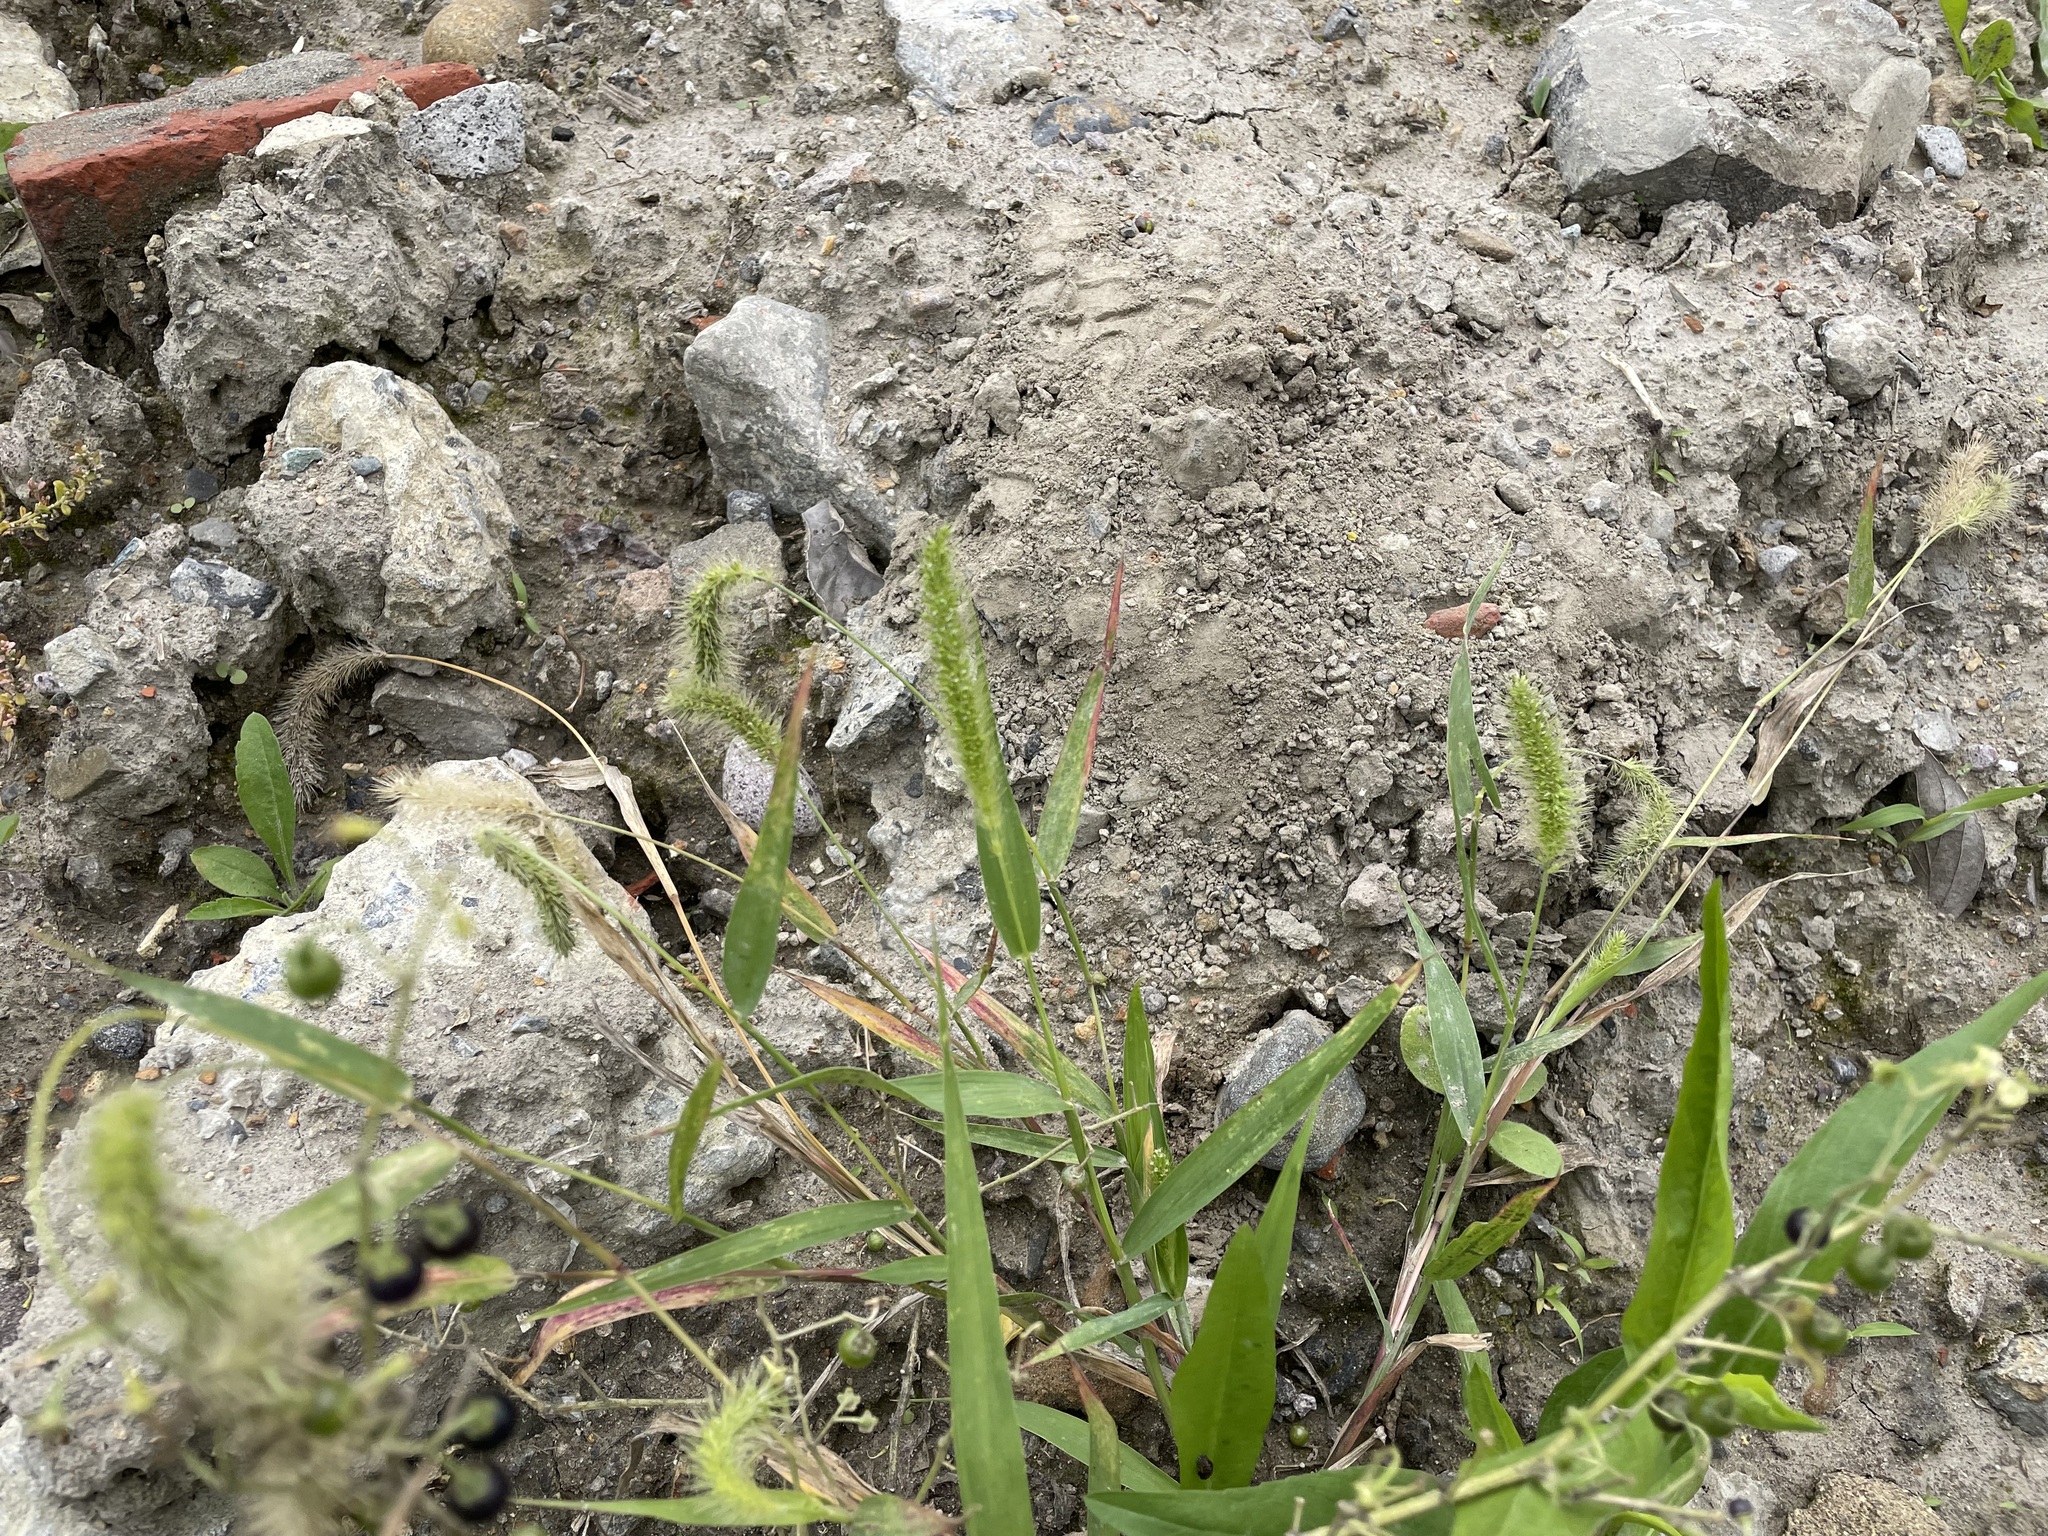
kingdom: Plantae
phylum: Tracheophyta
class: Liliopsida
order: Poales
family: Poaceae
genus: Setaria
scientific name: Setaria verticillata
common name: Hooked bristlegrass
